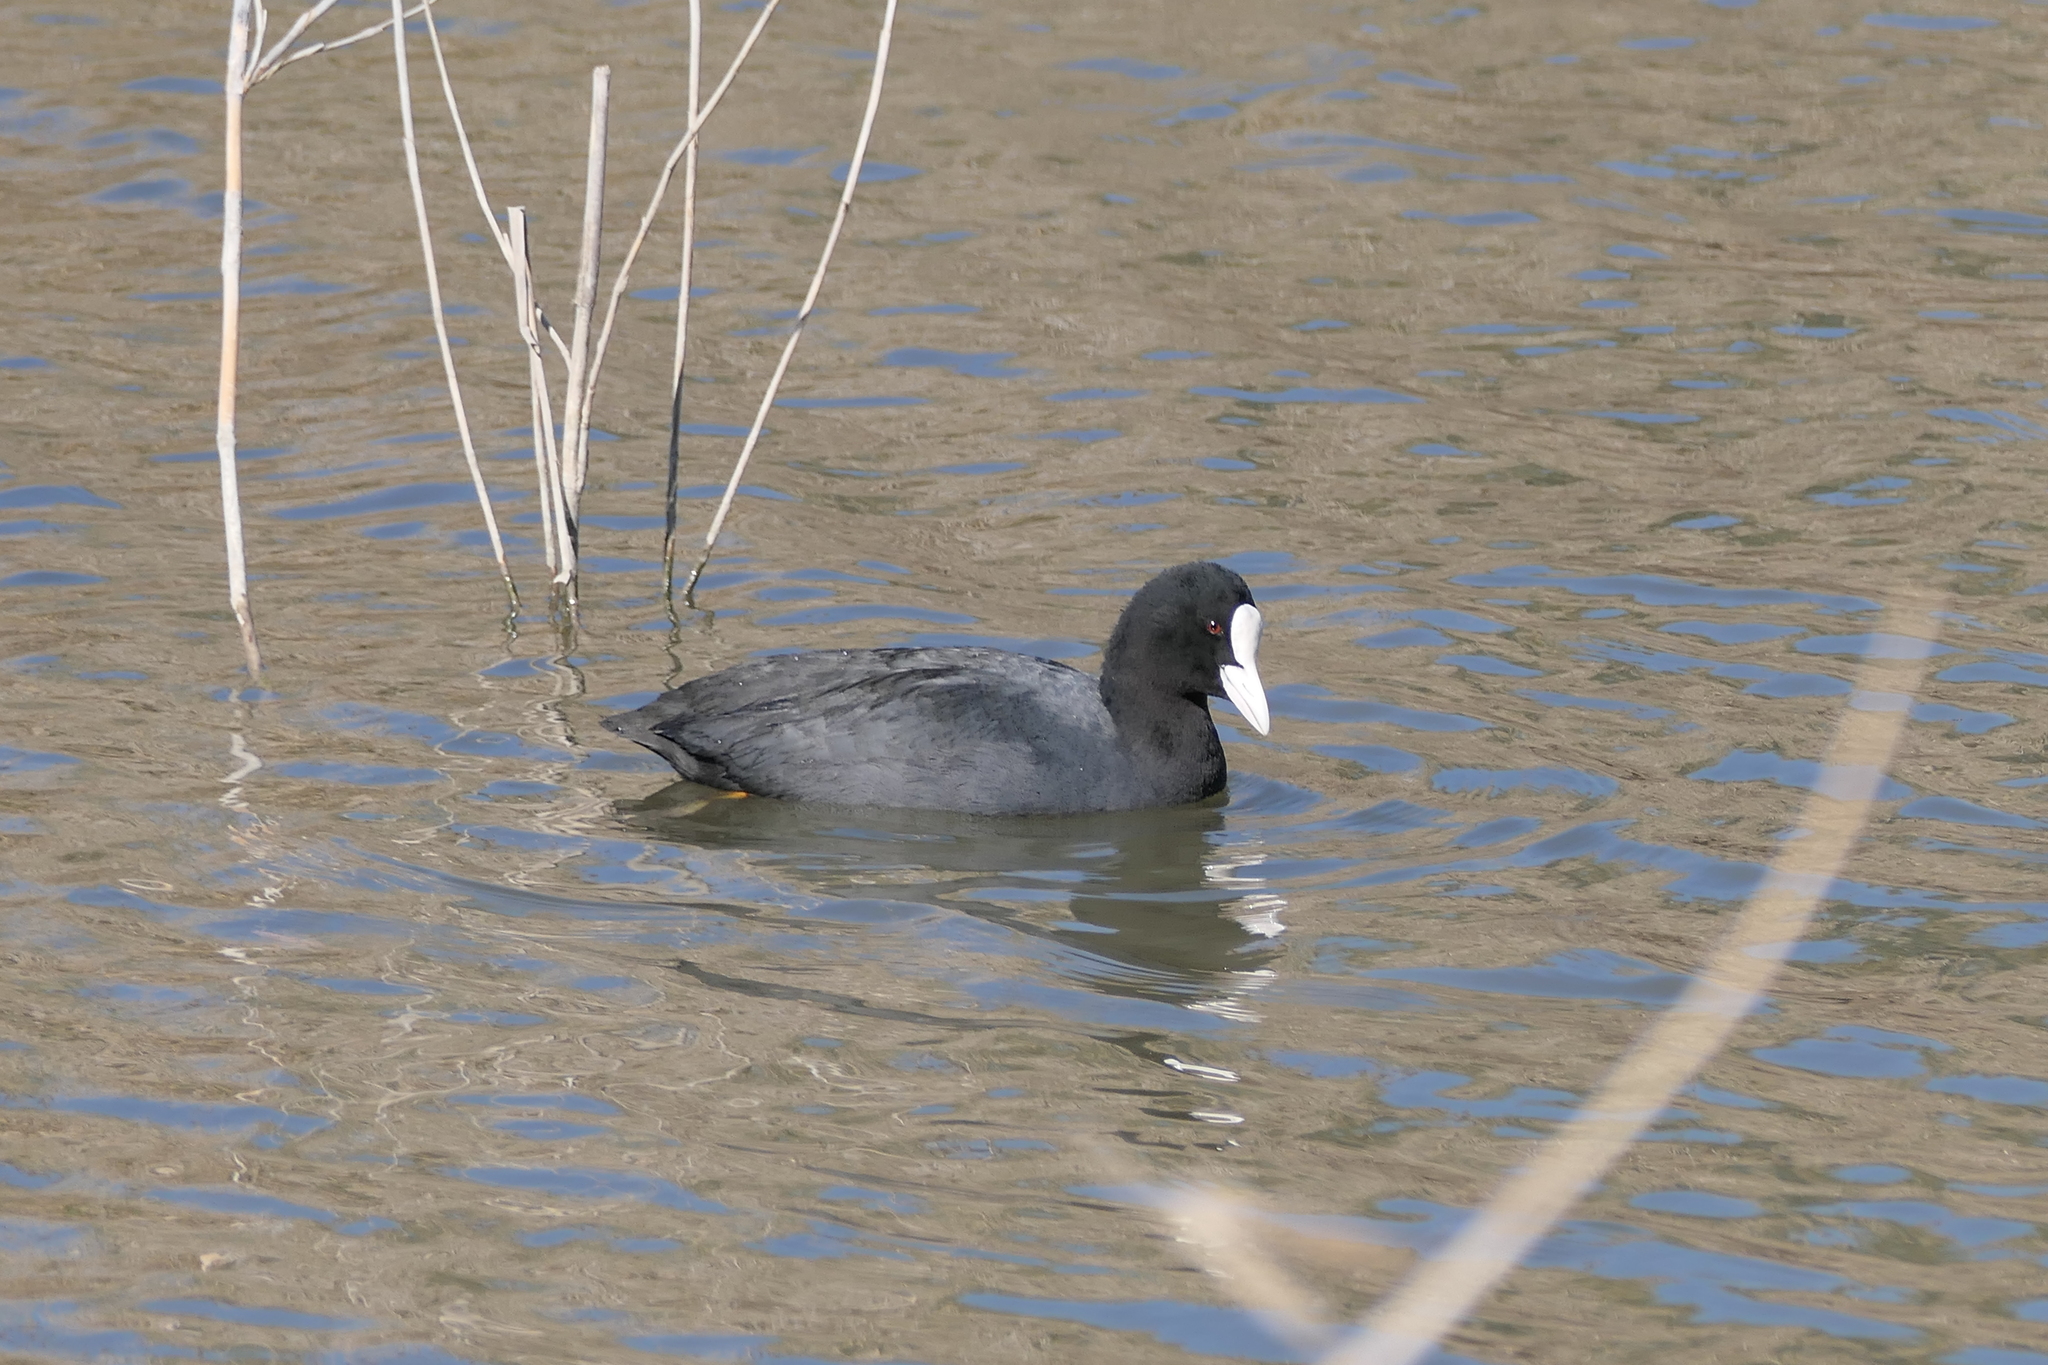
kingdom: Animalia
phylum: Chordata
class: Aves
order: Gruiformes
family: Rallidae
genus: Fulica
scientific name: Fulica atra
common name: Eurasian coot
